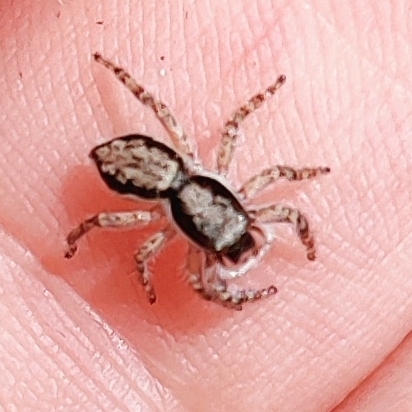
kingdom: Animalia
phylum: Arthropoda
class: Arachnida
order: Araneae
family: Salticidae
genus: Menemerus
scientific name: Menemerus bivittatus
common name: Gray wall jumper
